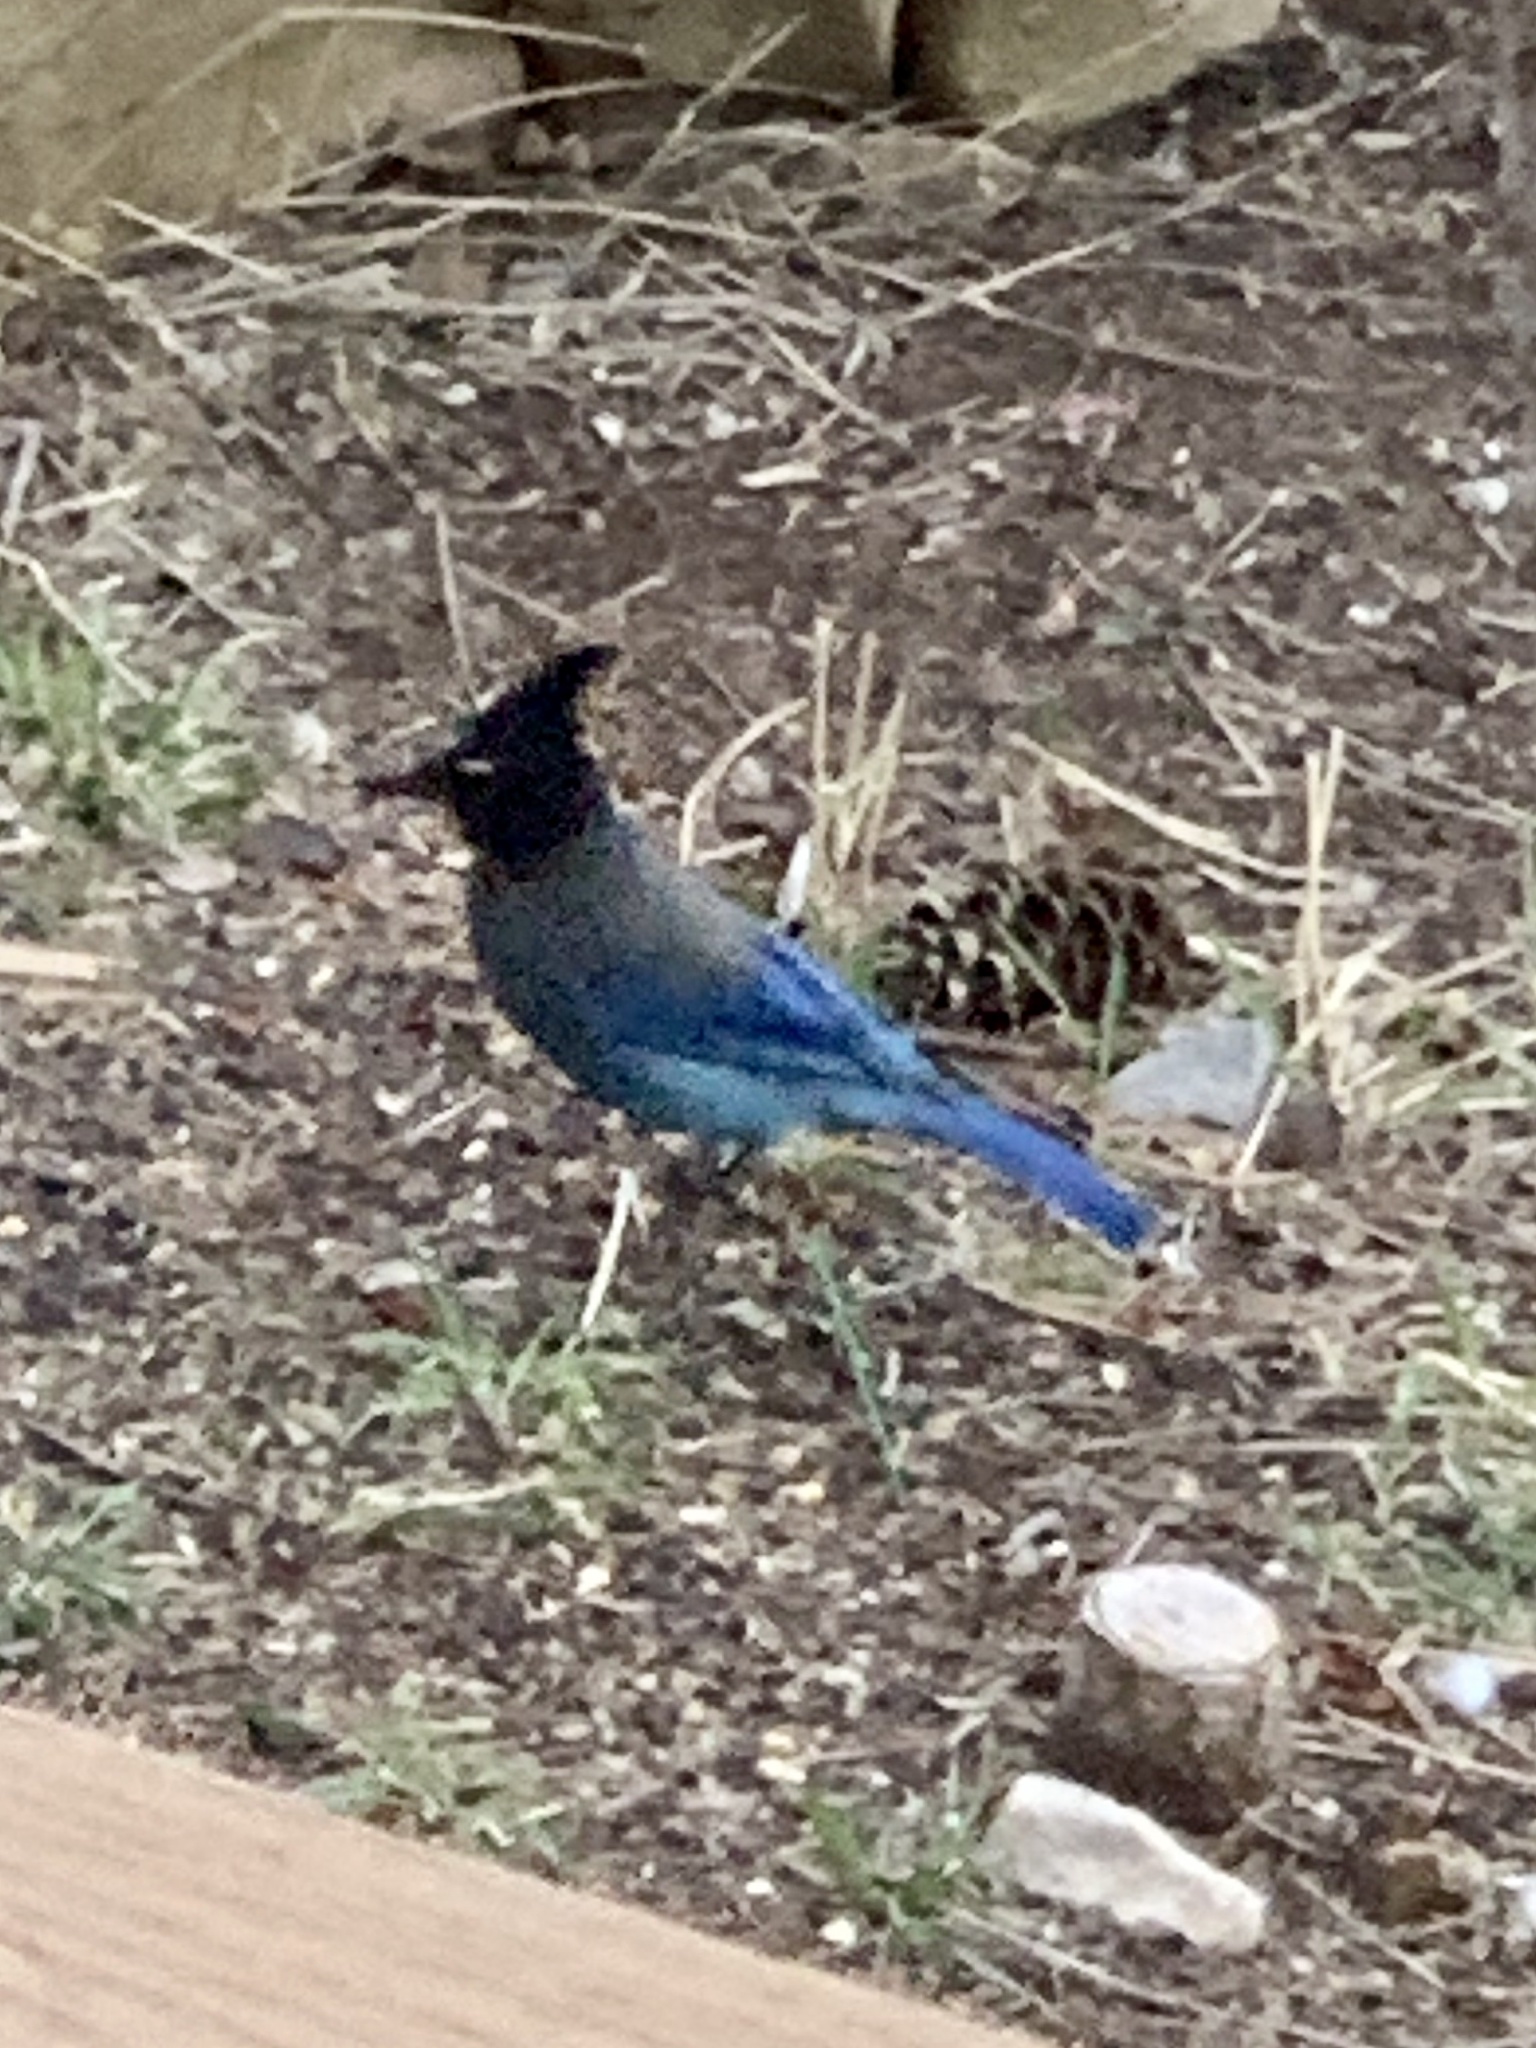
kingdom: Animalia
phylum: Chordata
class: Aves
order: Passeriformes
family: Corvidae
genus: Cyanocitta
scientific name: Cyanocitta stelleri
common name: Steller's jay
